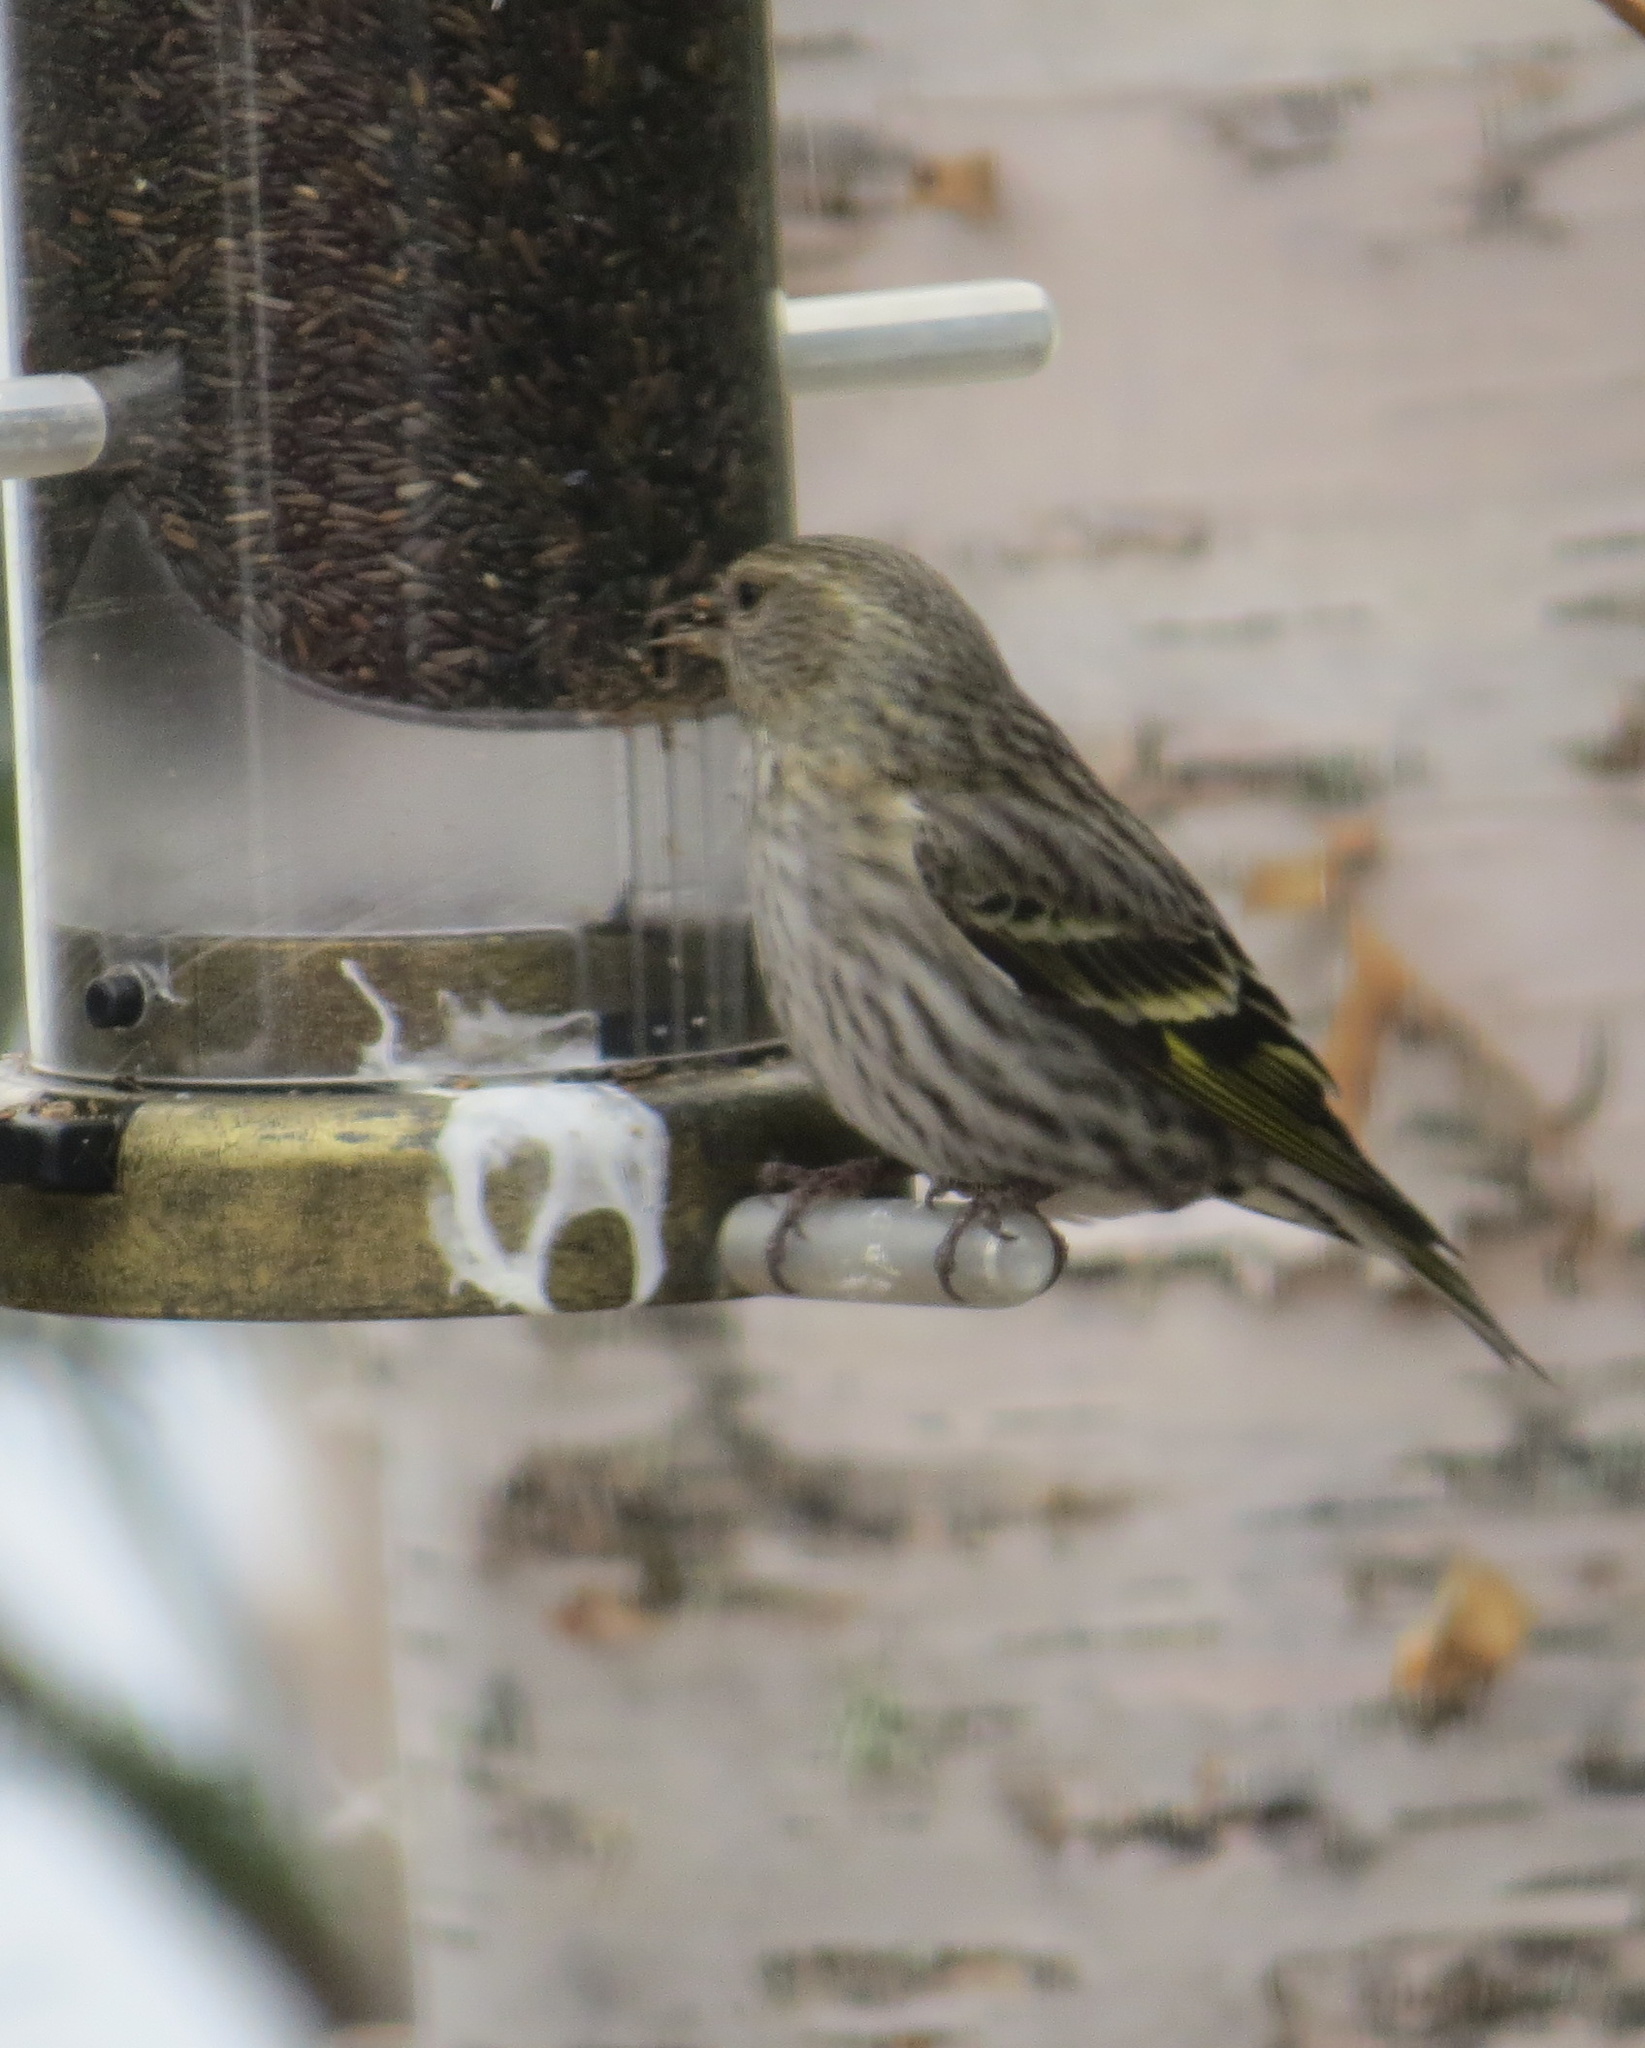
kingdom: Animalia
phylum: Chordata
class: Aves
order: Passeriformes
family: Fringillidae
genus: Spinus
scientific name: Spinus pinus
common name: Pine siskin
